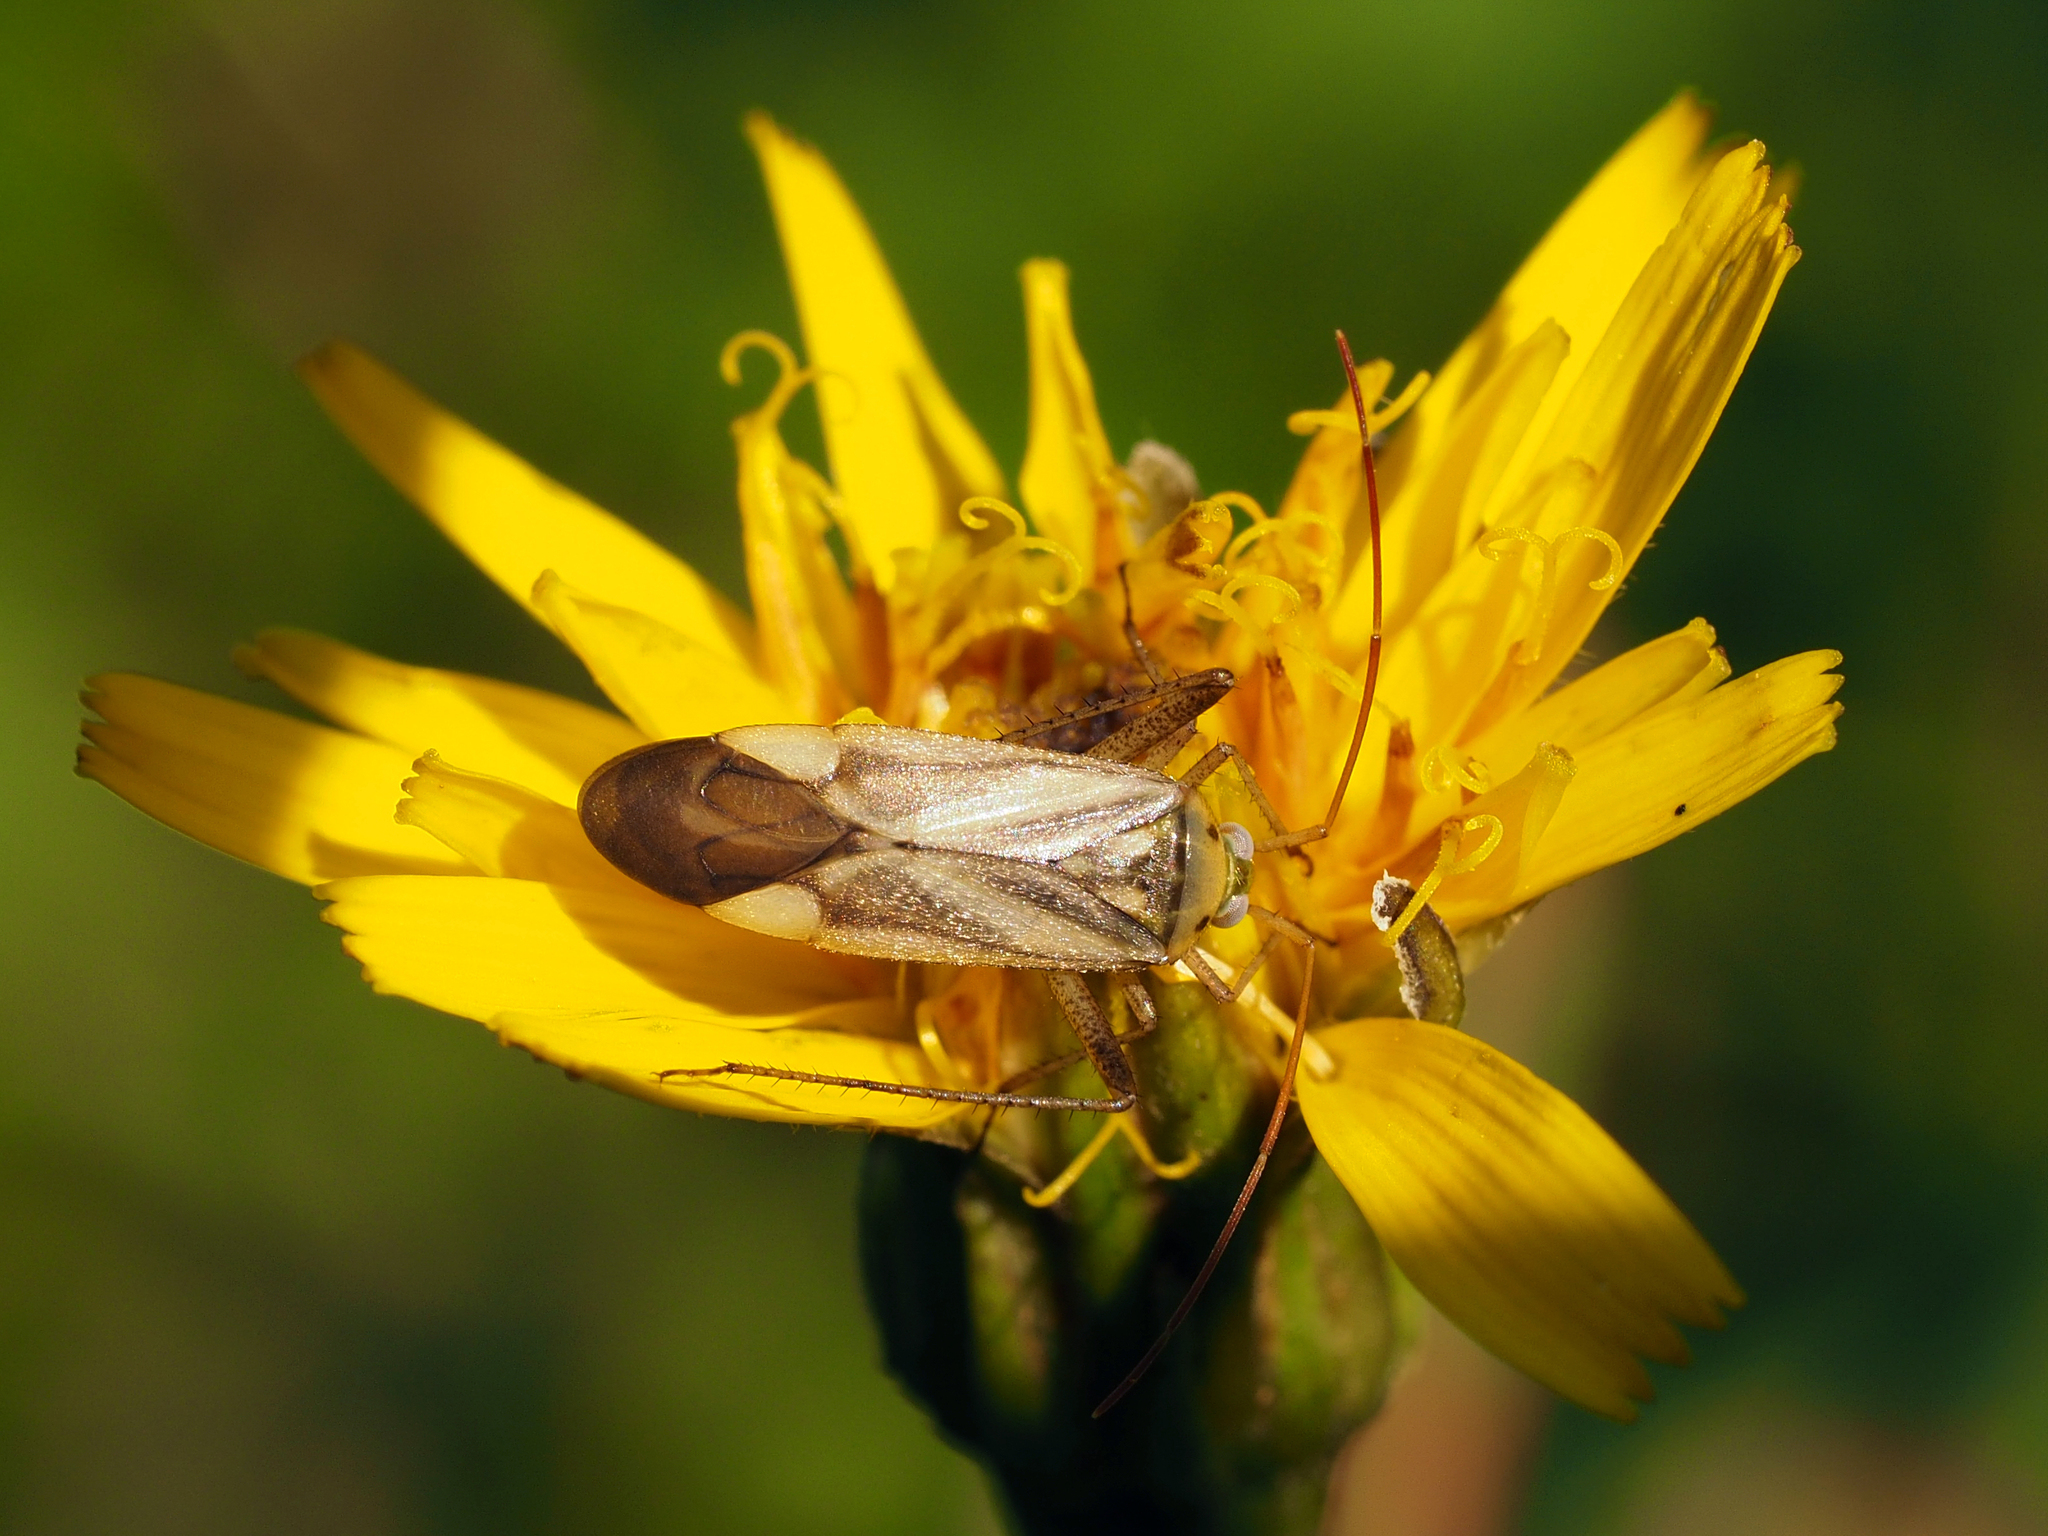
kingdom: Animalia
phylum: Arthropoda
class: Insecta
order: Hemiptera
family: Miridae
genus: Adelphocoris
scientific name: Adelphocoris lineolatus
